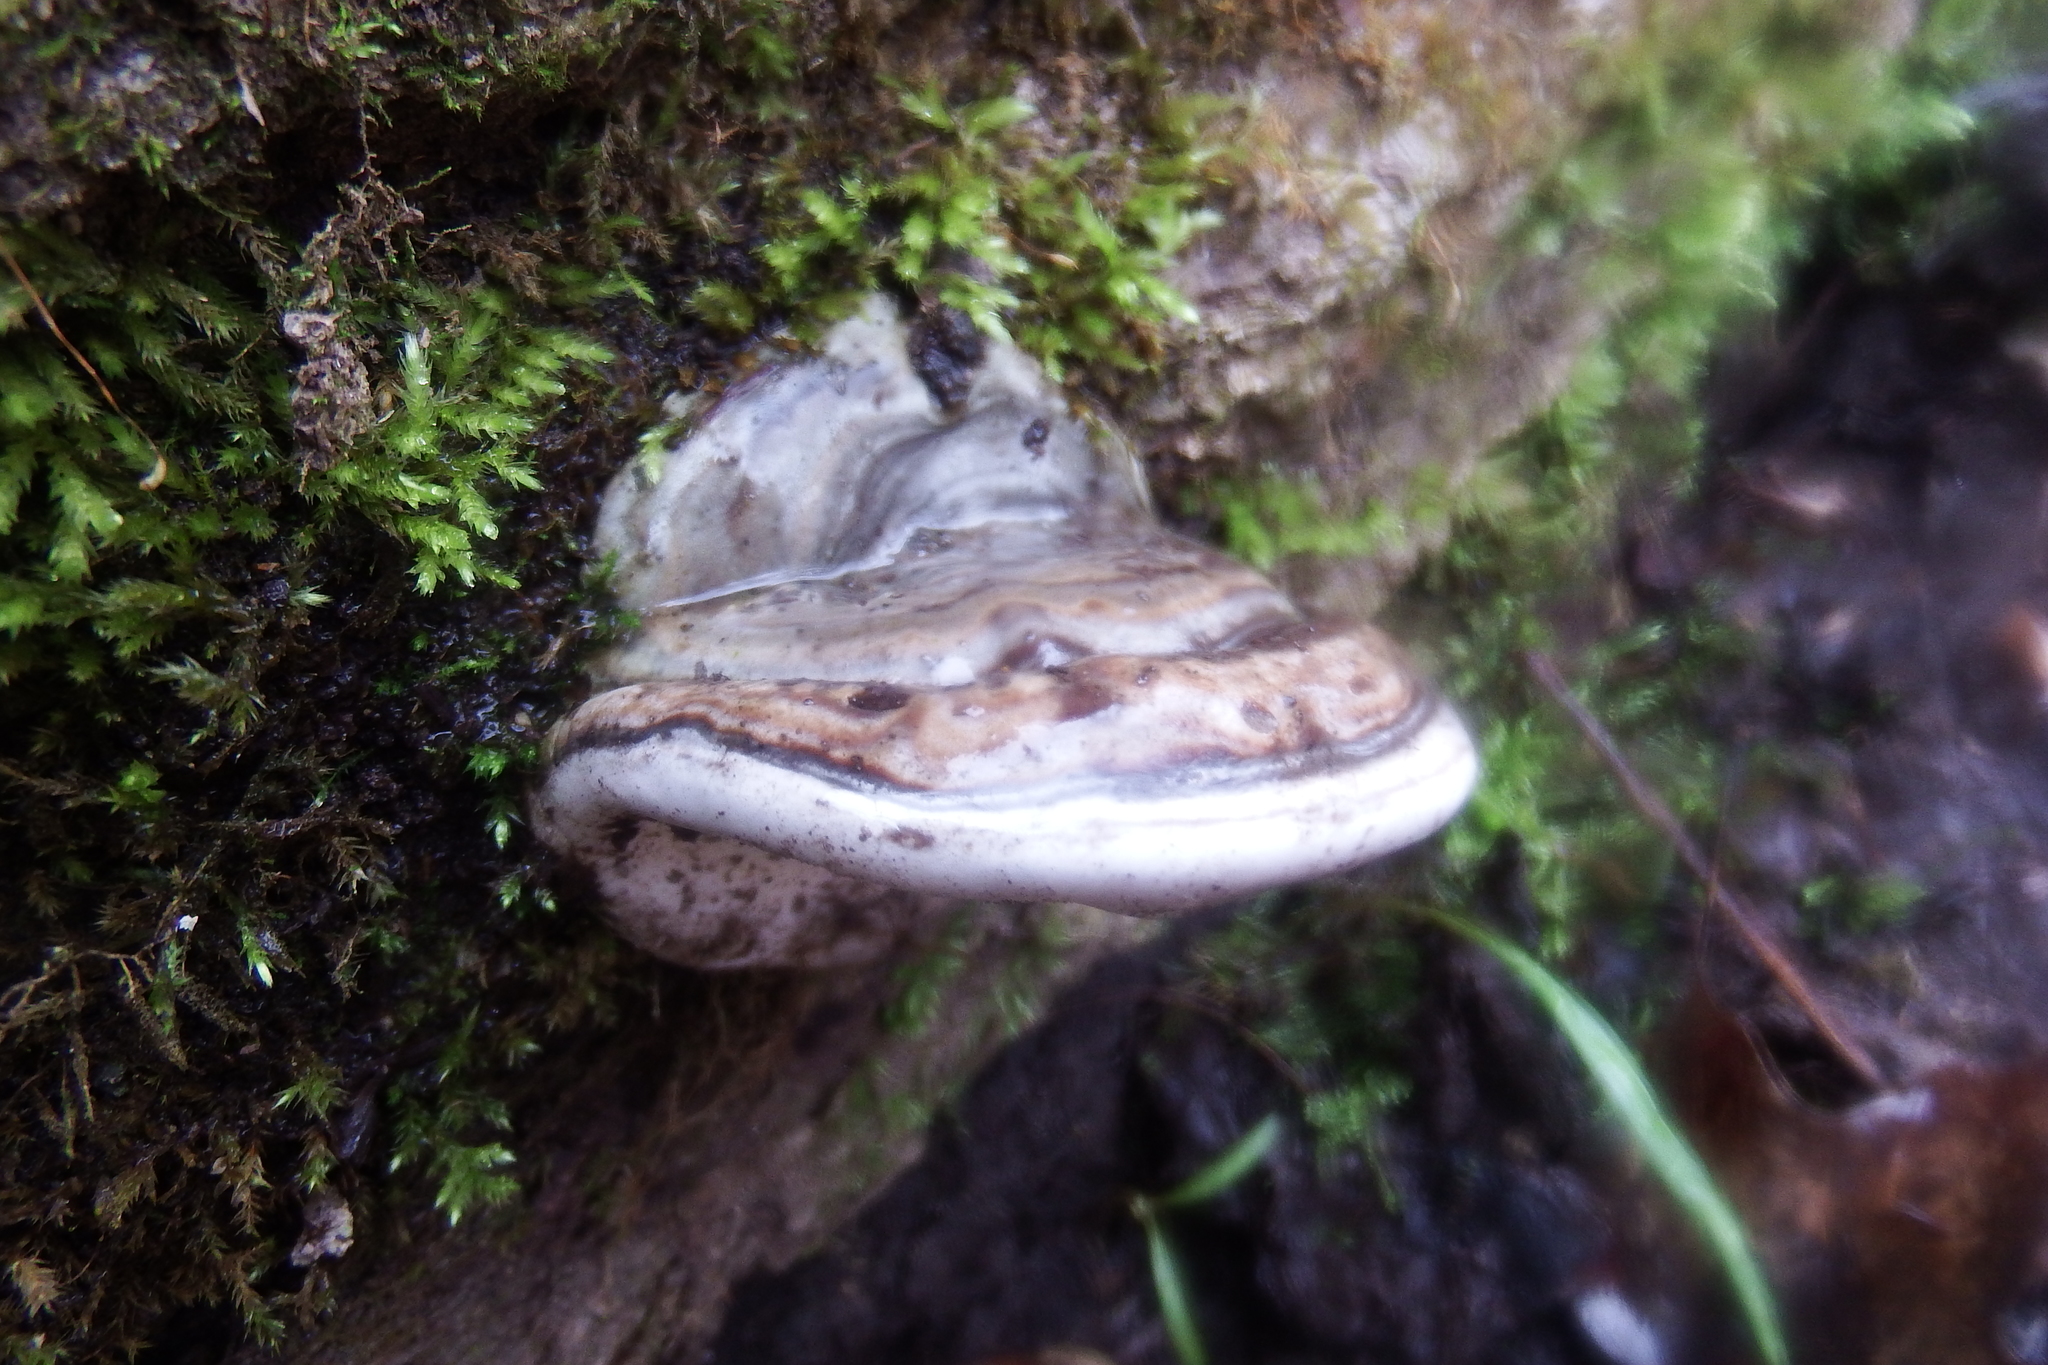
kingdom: Fungi
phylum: Basidiomycota
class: Agaricomycetes
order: Polyporales
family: Polyporaceae
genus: Ganoderma
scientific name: Ganoderma applanatum
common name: Artist's bracket
